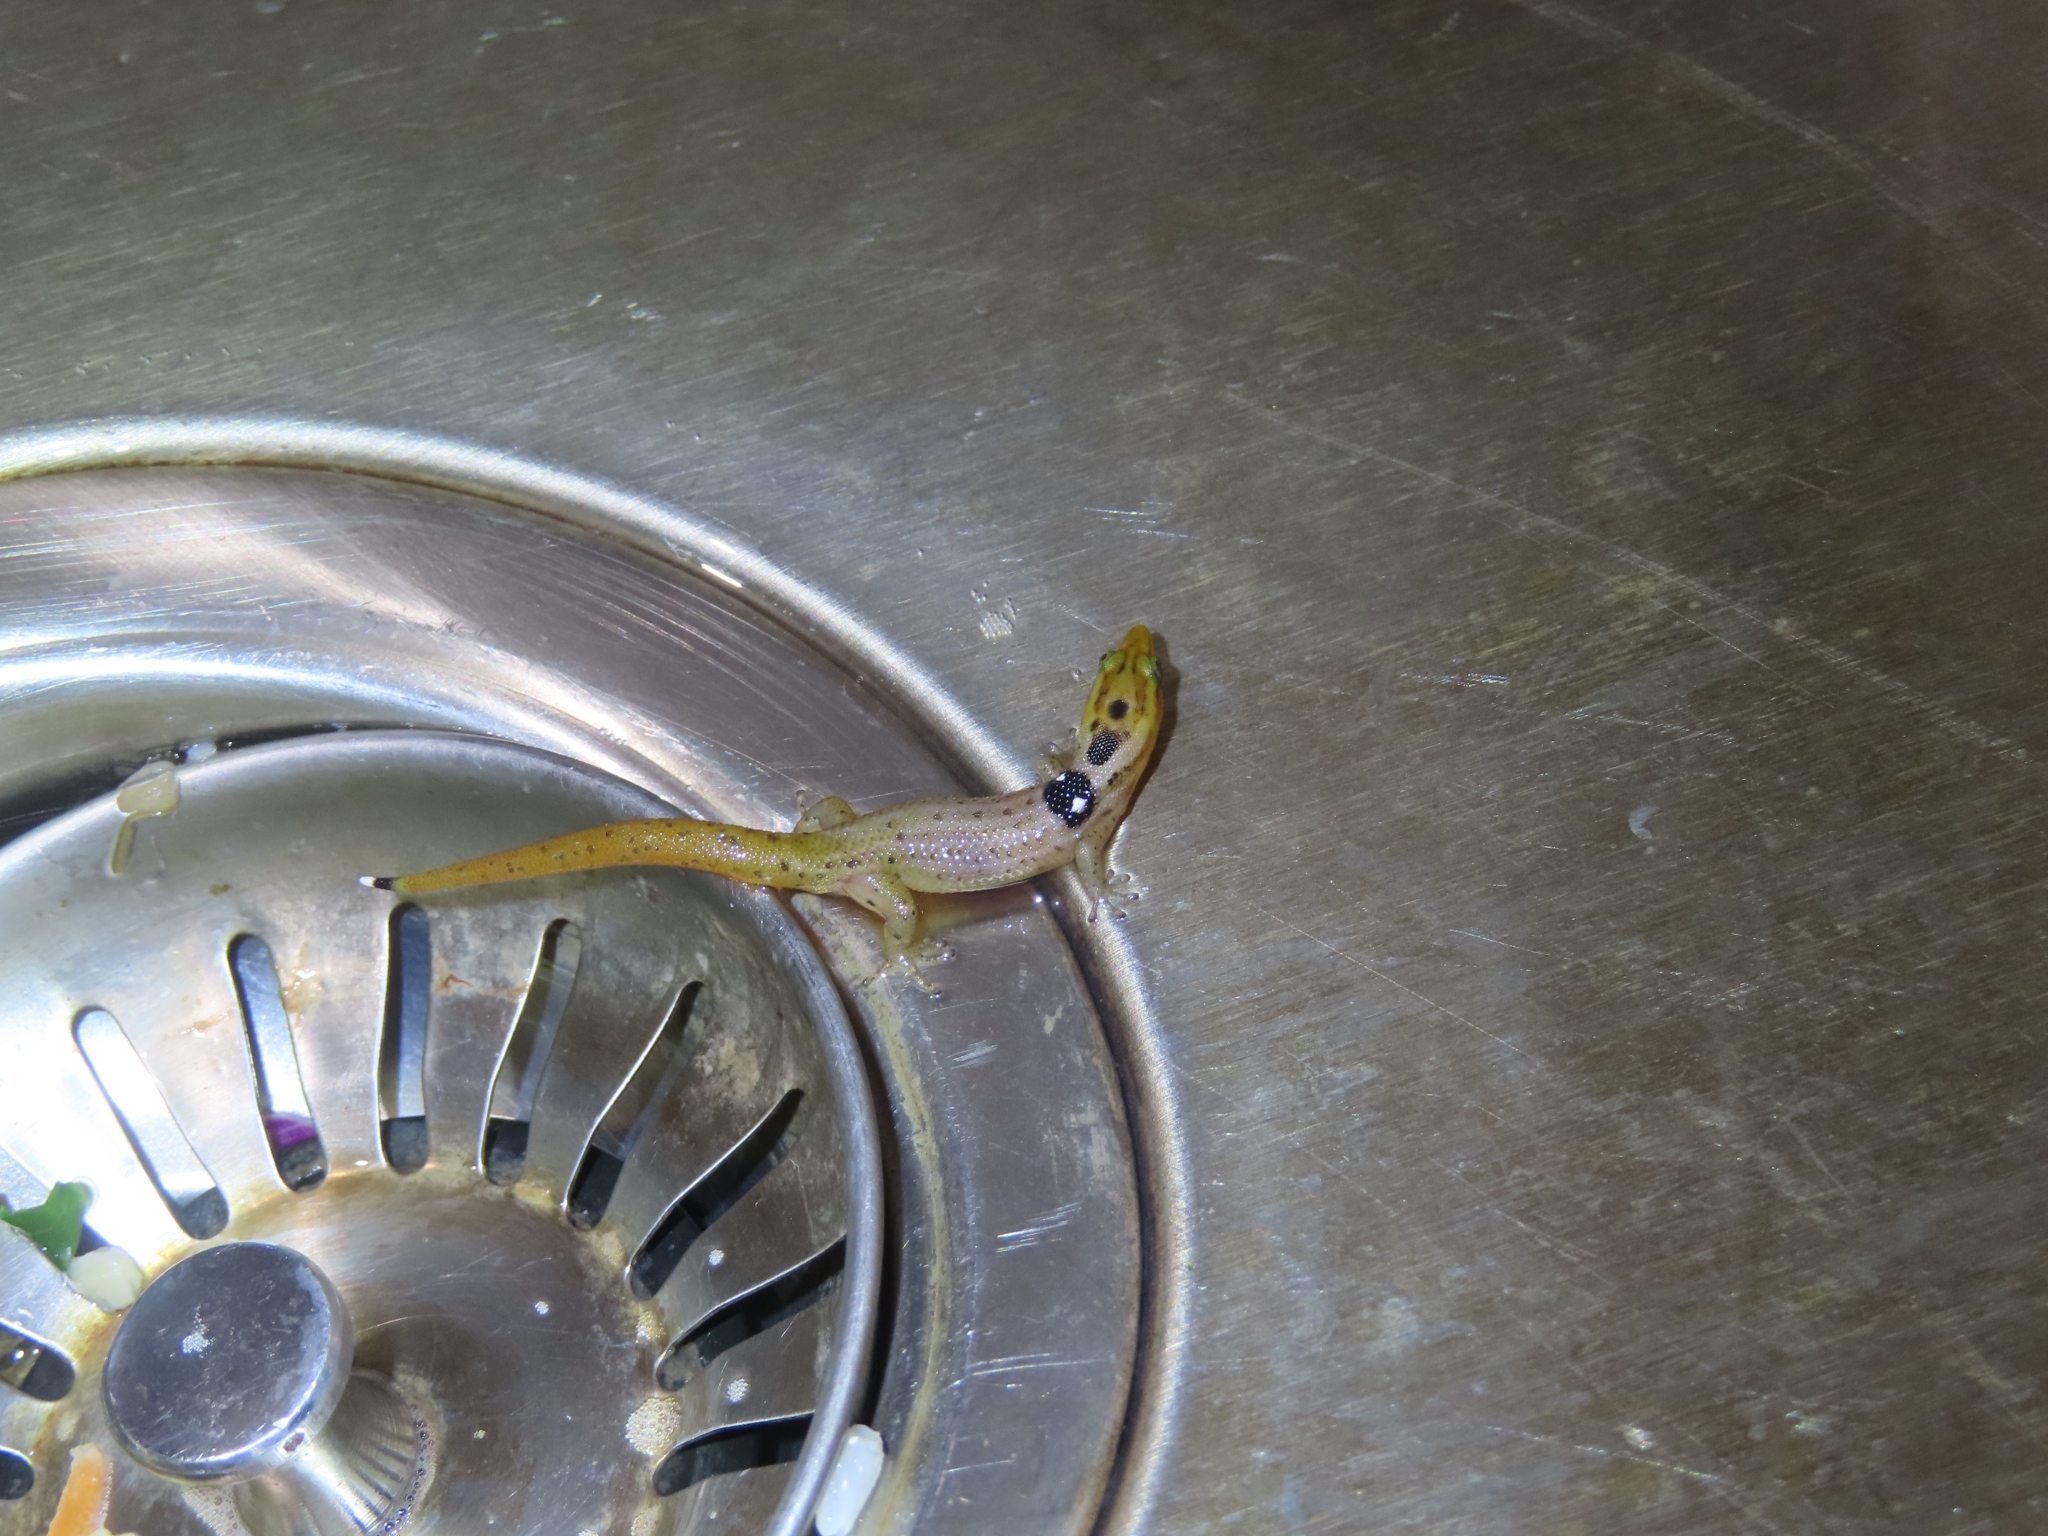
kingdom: Animalia
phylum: Chordata
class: Squamata
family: Sphaerodactylidae
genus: Sphaerodactylus
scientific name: Sphaerodactylus grandisquamis
